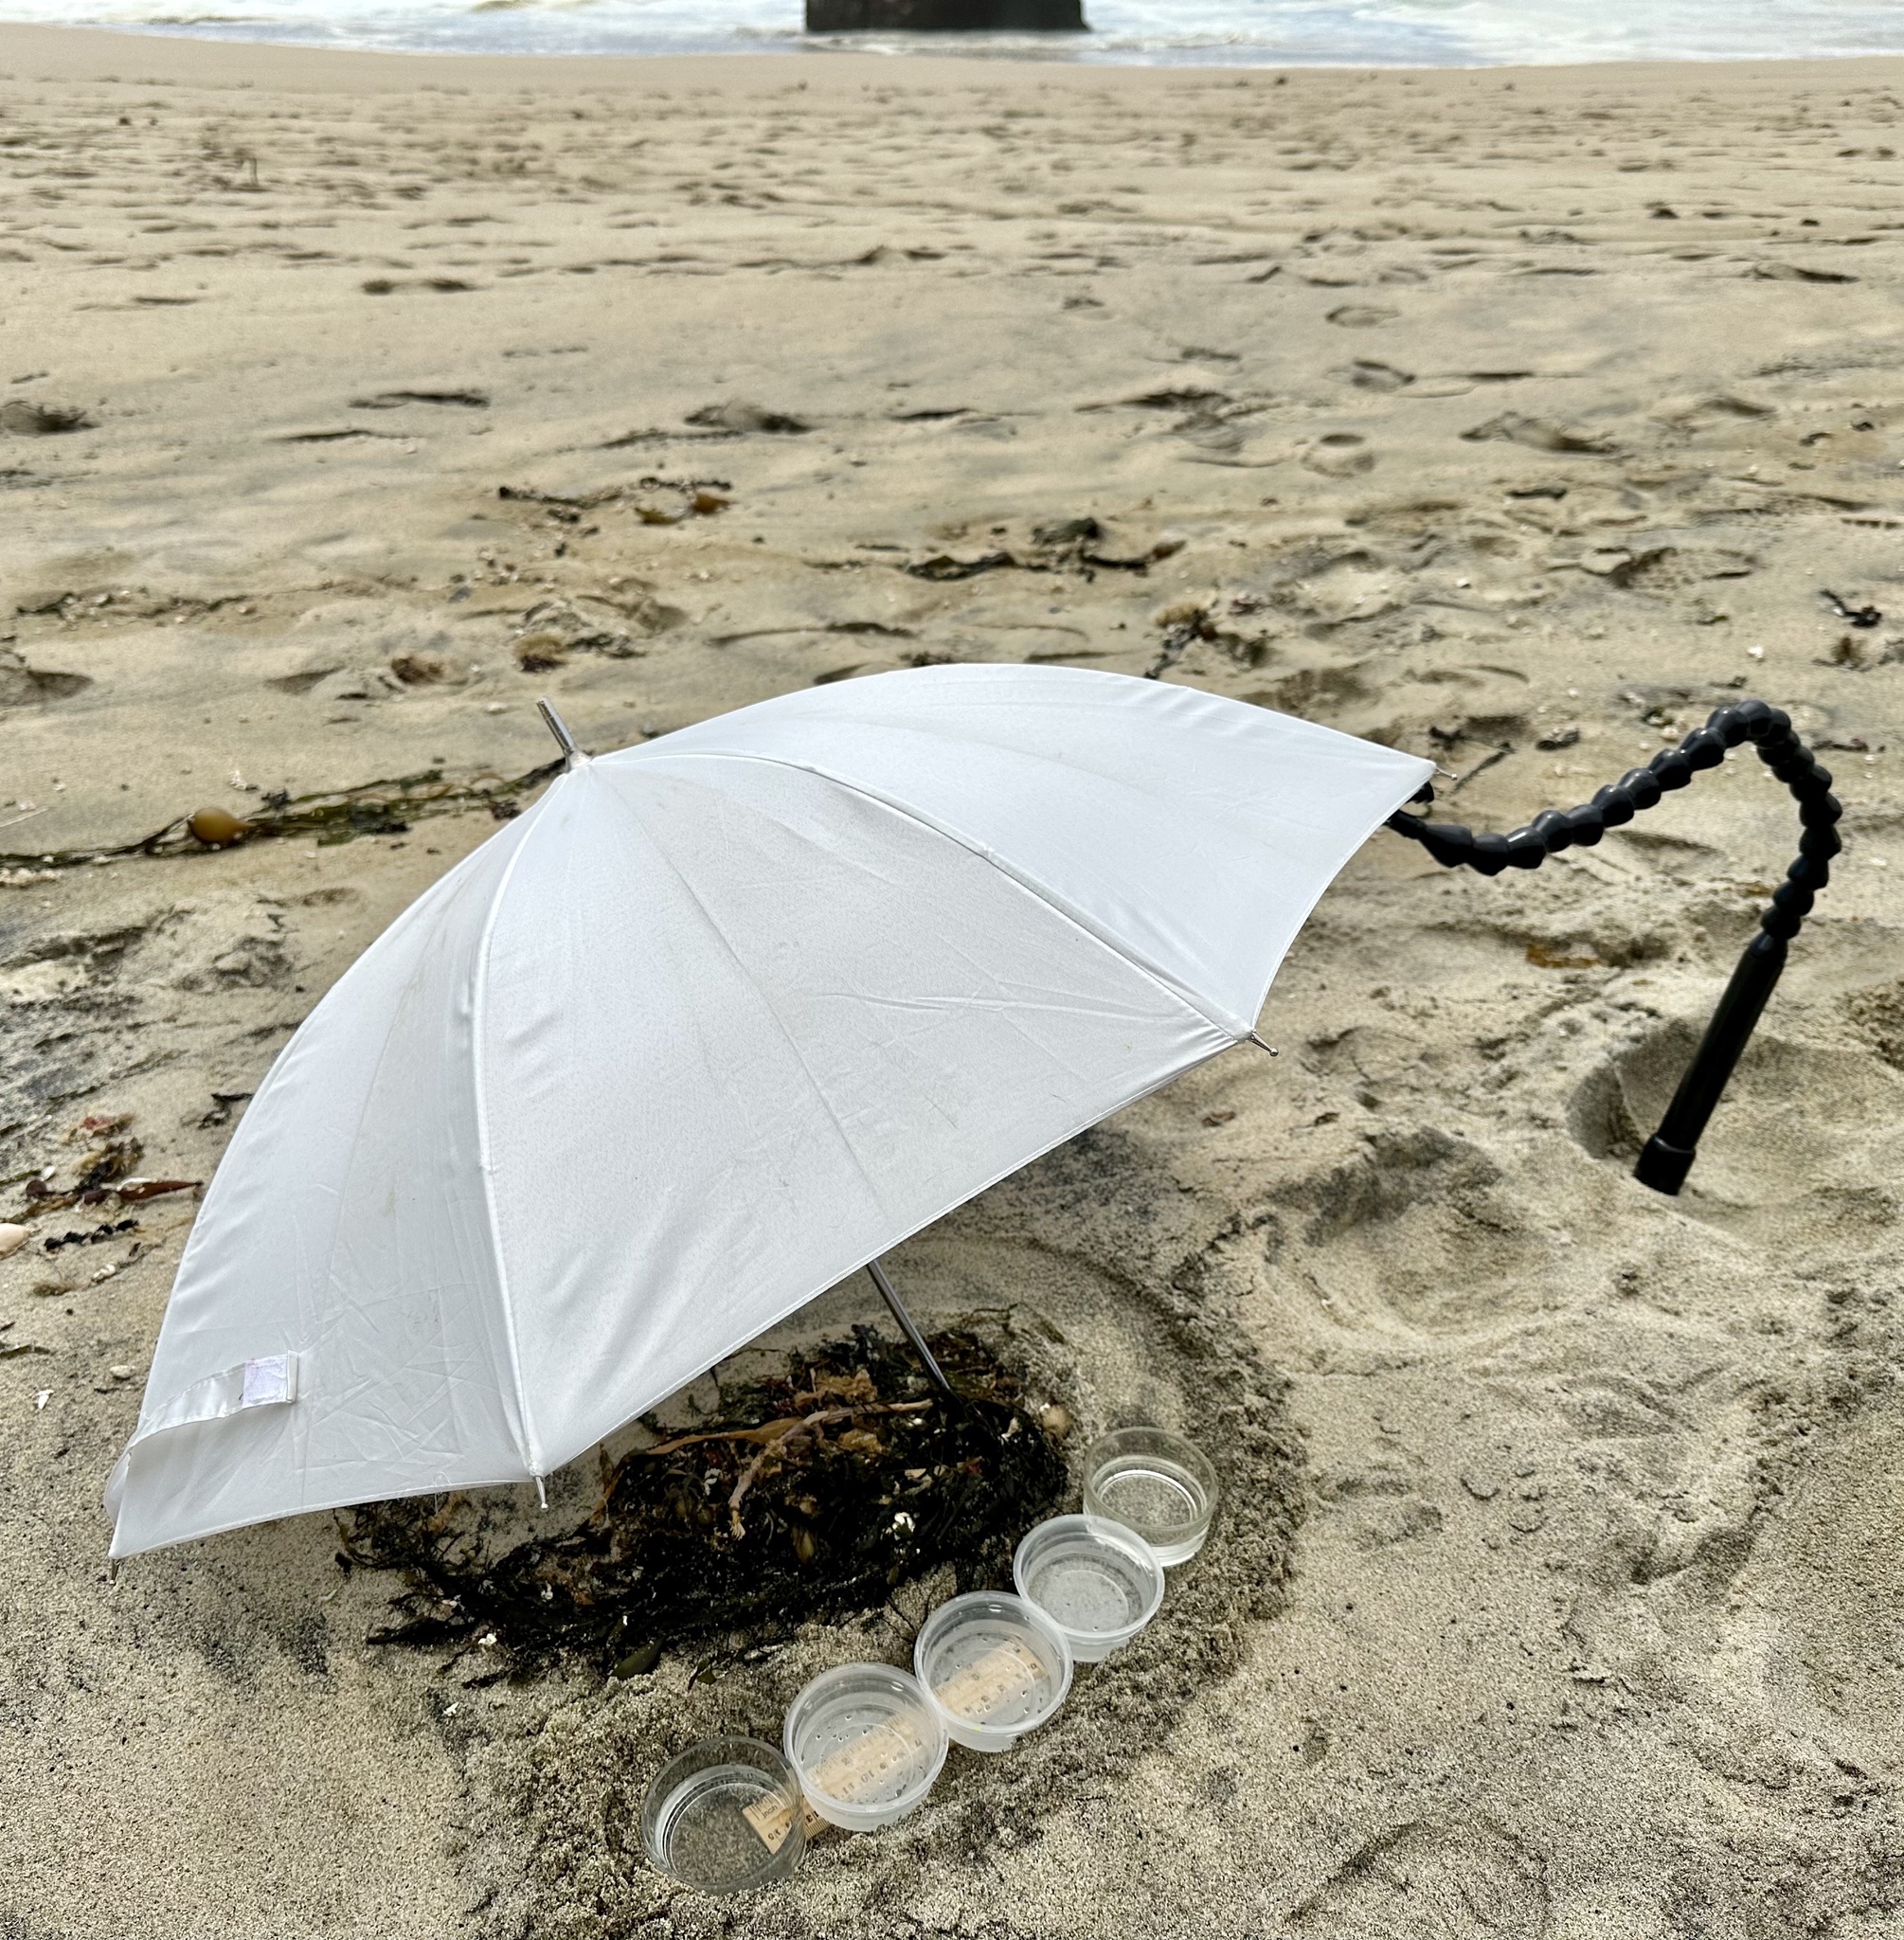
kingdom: Animalia
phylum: Arthropoda
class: Malacostraca
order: Amphipoda
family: Talitridae
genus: Megalorchestia
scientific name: Megalorchestia pugettensis
